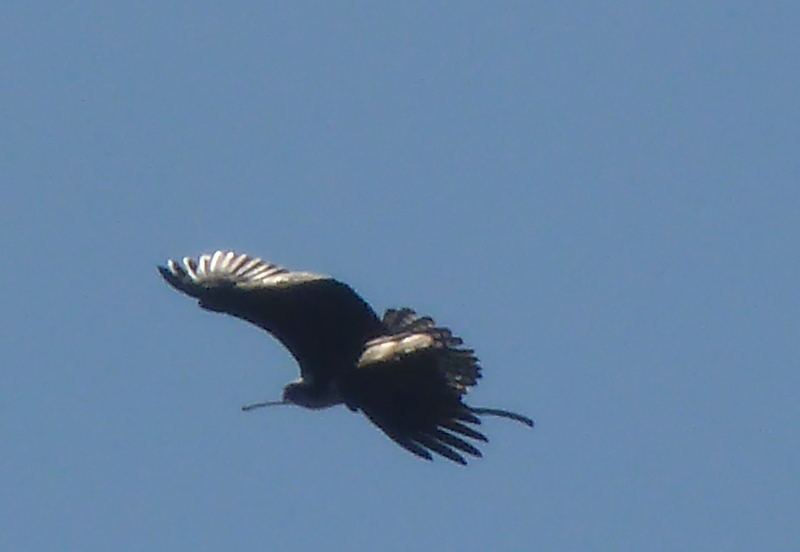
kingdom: Animalia
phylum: Chordata
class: Aves
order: Accipitriformes
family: Pandionidae
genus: Pandion
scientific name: Pandion haliaetus
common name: Osprey
